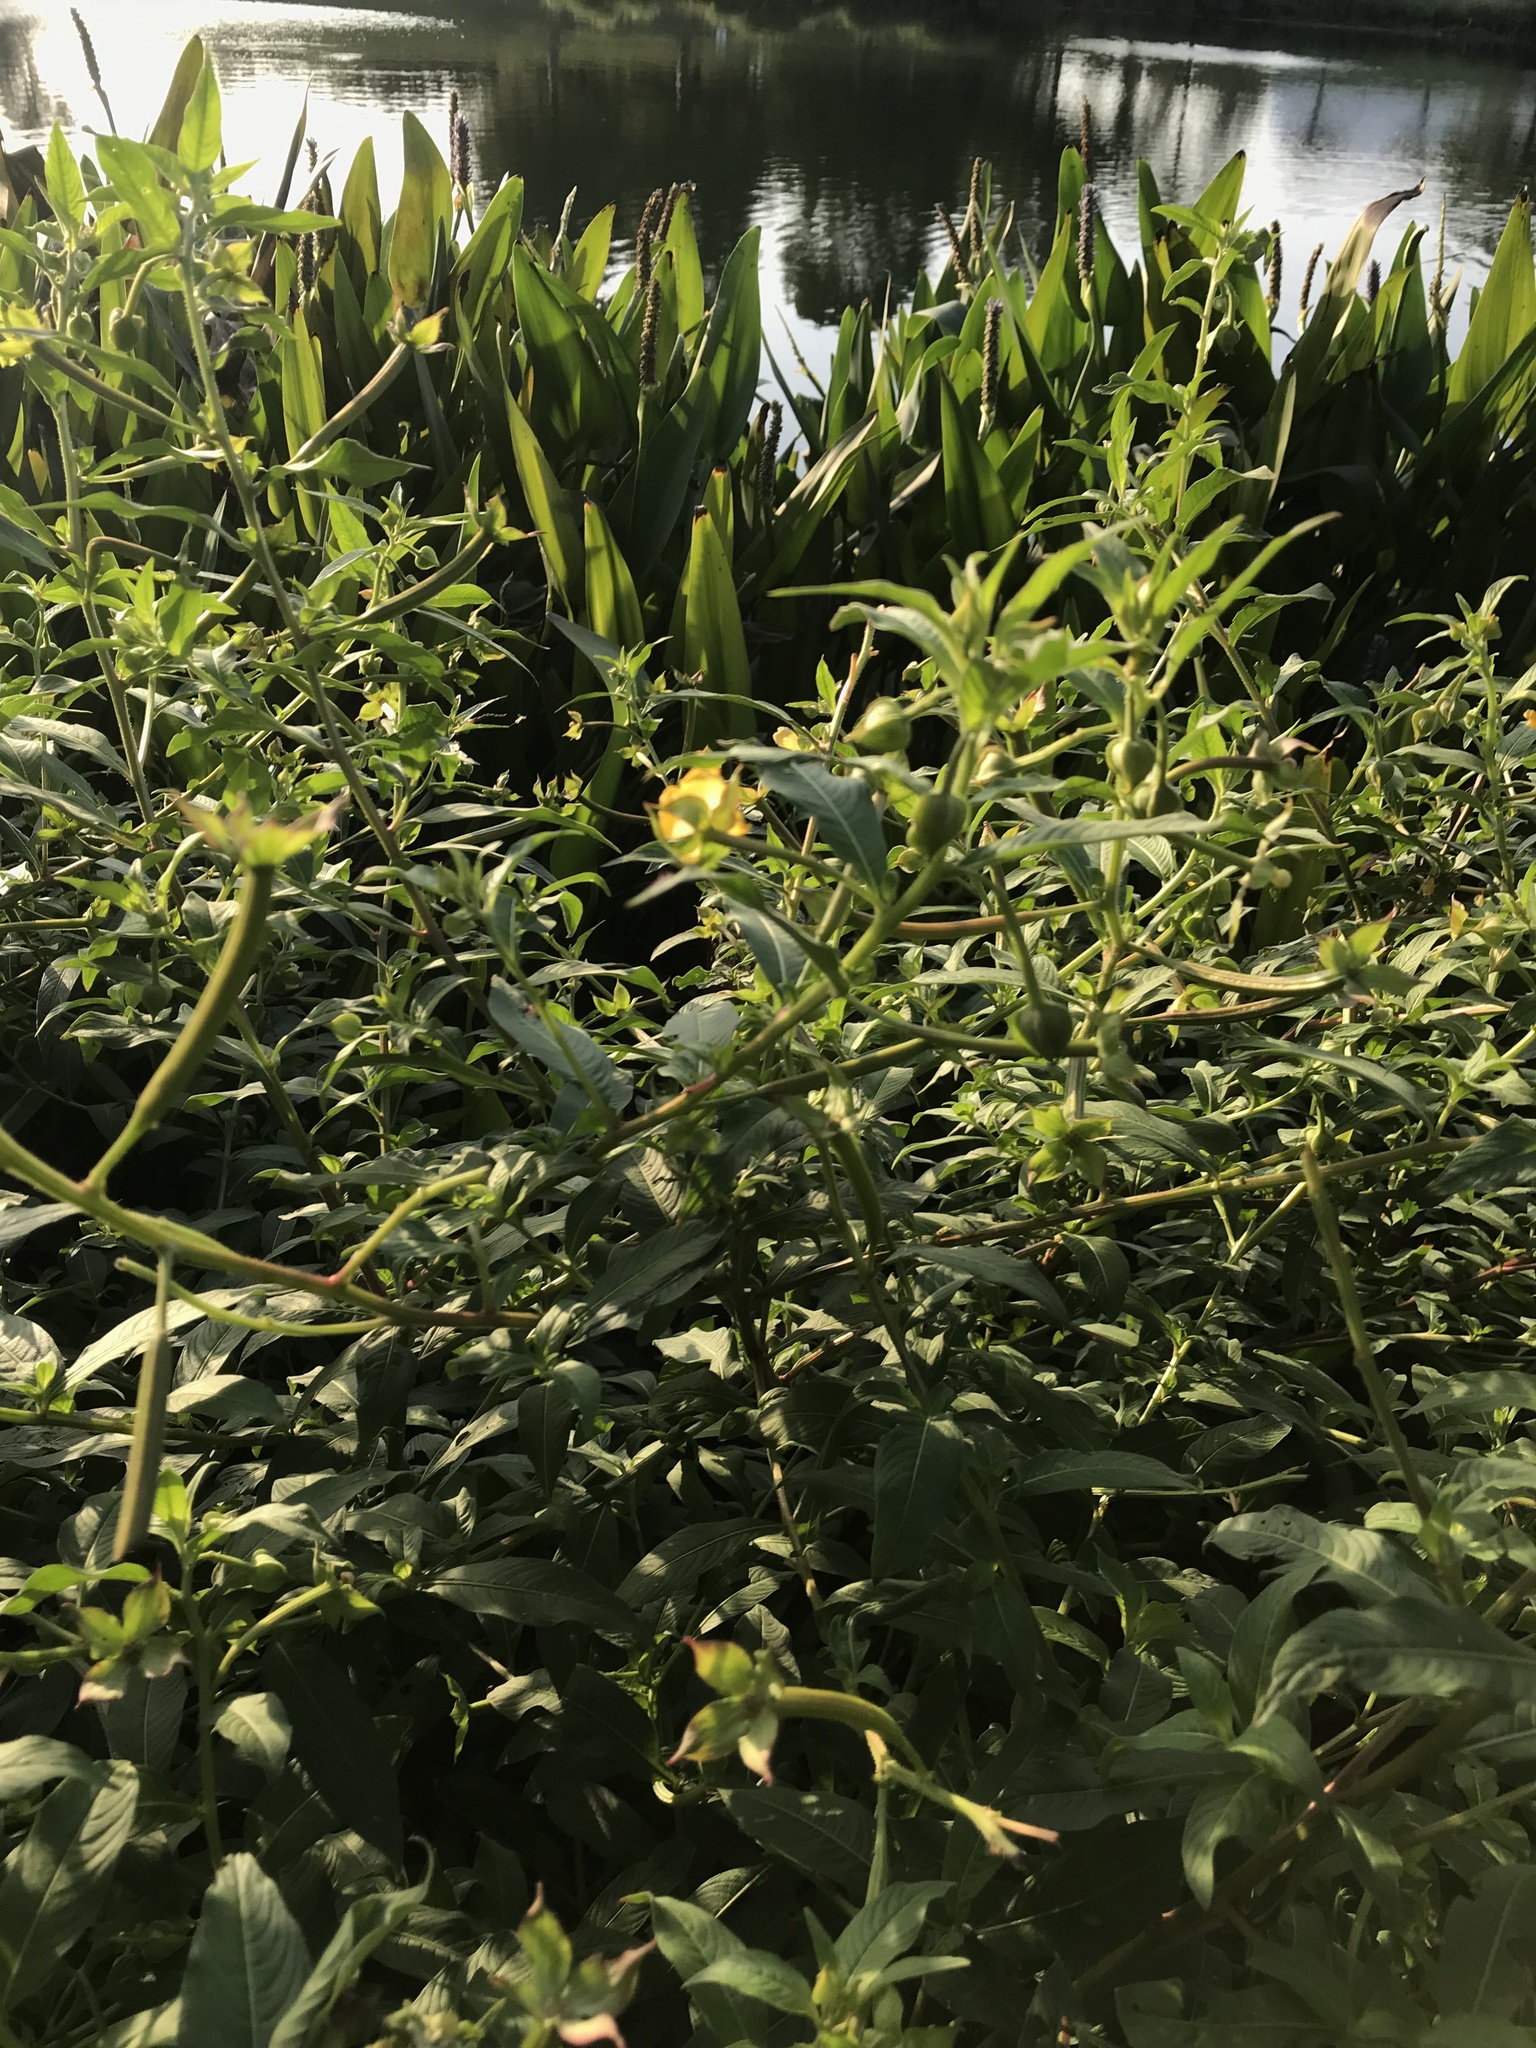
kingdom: Plantae
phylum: Tracheophyta
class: Magnoliopsida
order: Myrtales
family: Onagraceae
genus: Ludwigia
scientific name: Ludwigia octovalvis
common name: Water-primrose
